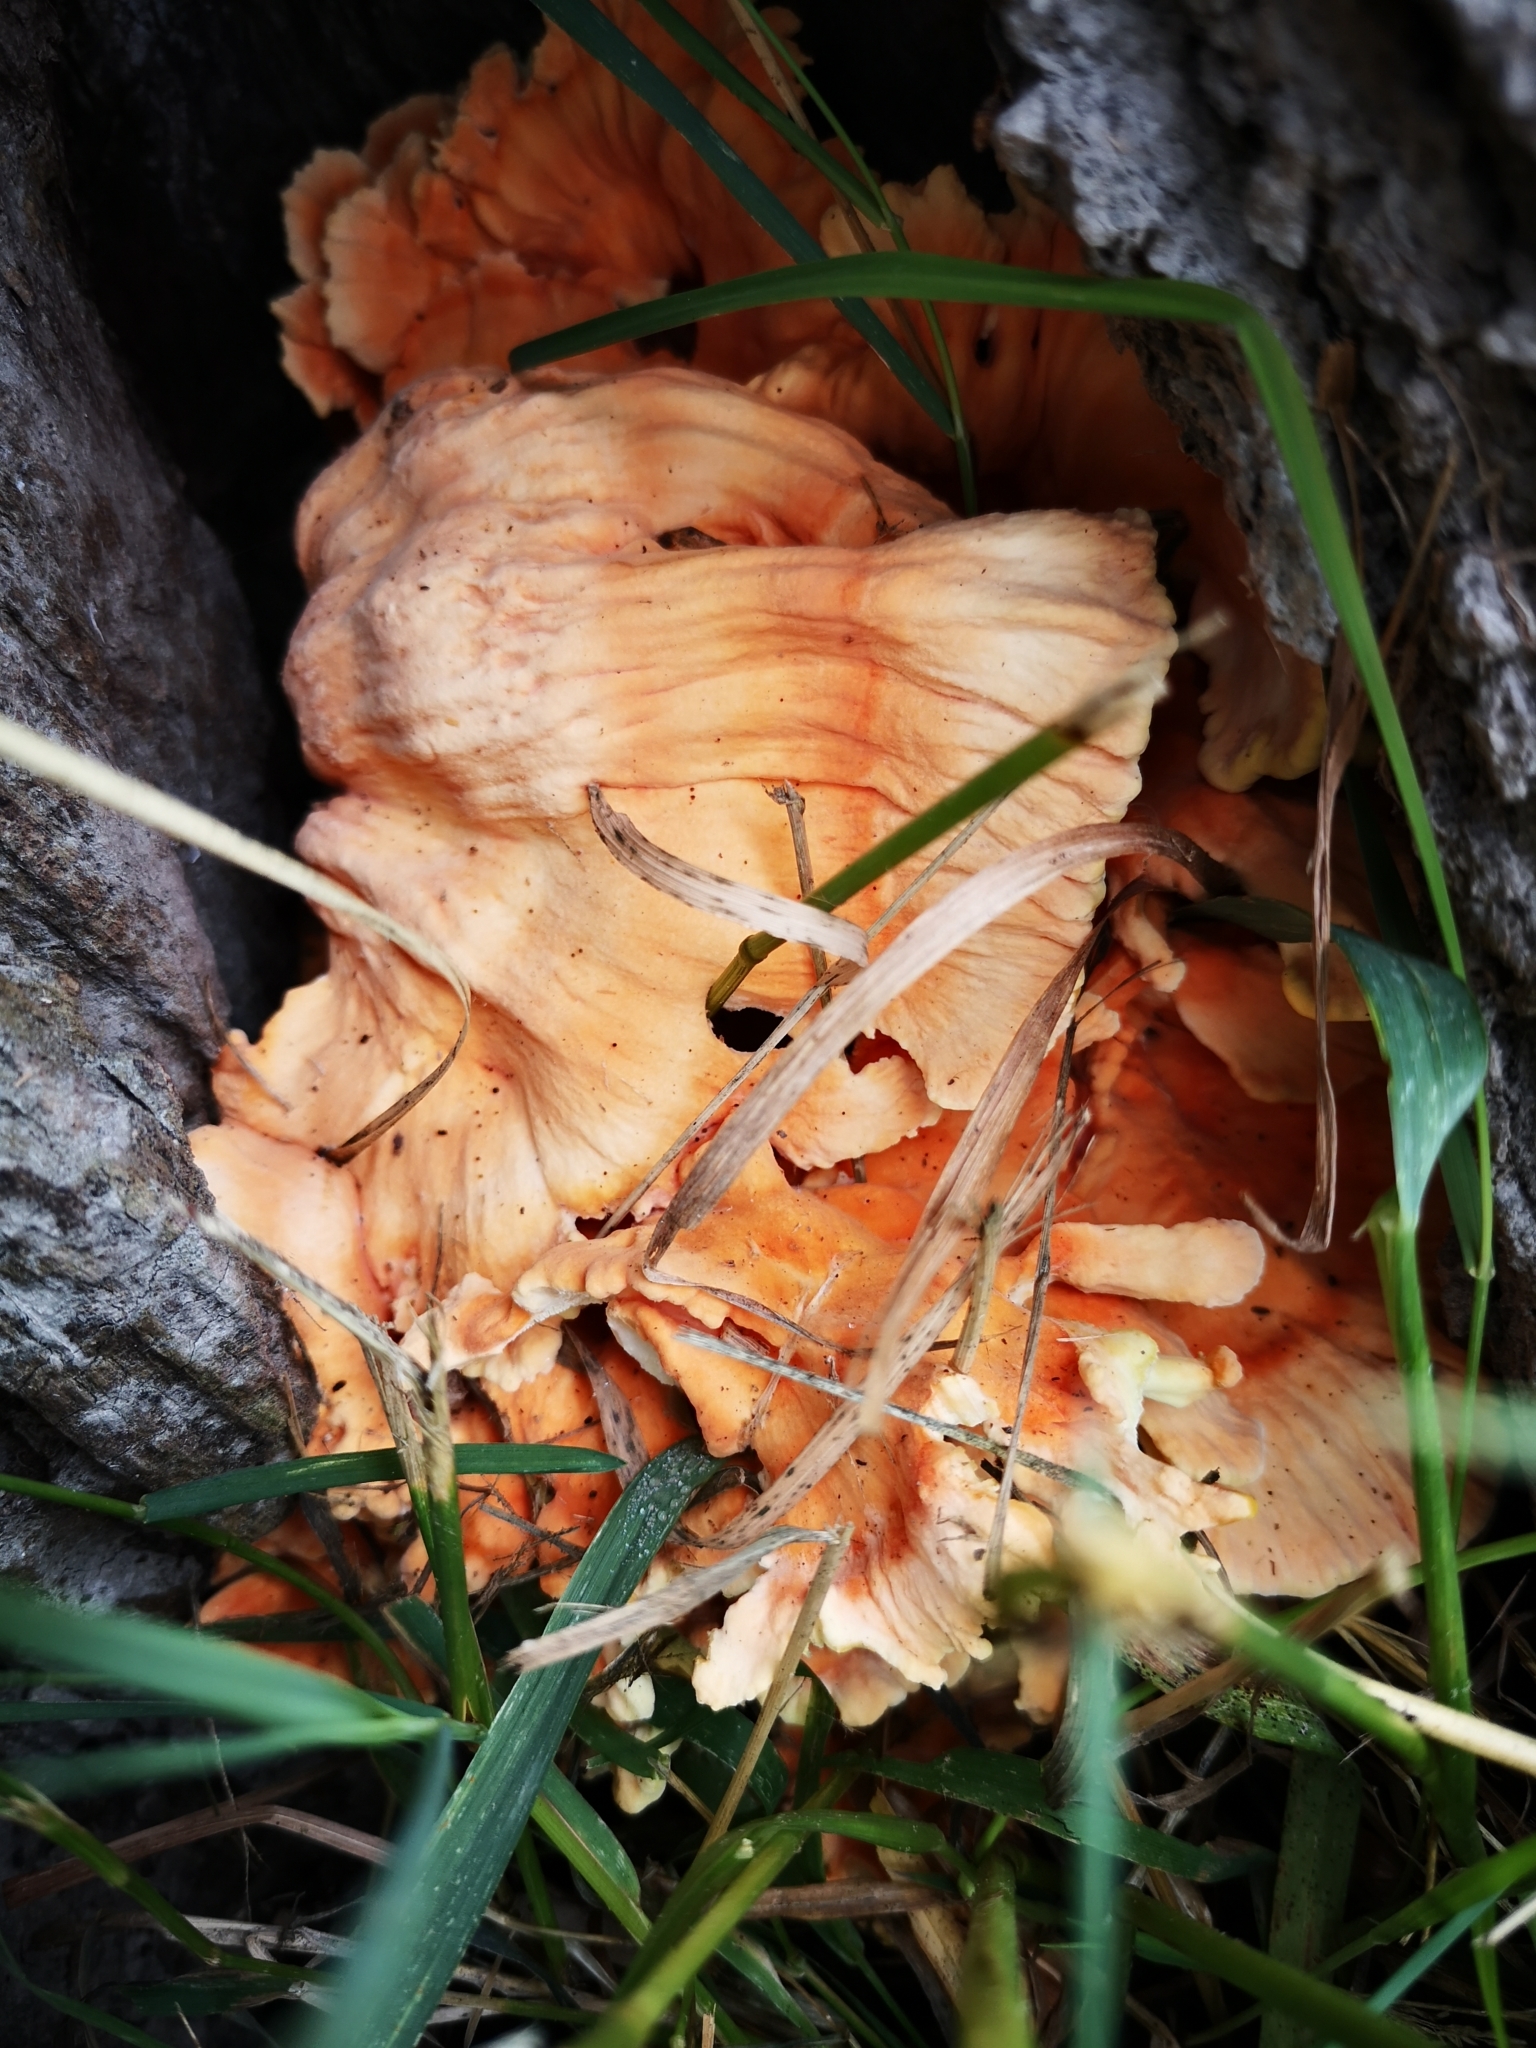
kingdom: Fungi
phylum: Basidiomycota
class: Agaricomycetes
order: Polyporales
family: Laetiporaceae
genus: Laetiporus
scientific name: Laetiporus sulphureus
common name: Chicken of the woods
